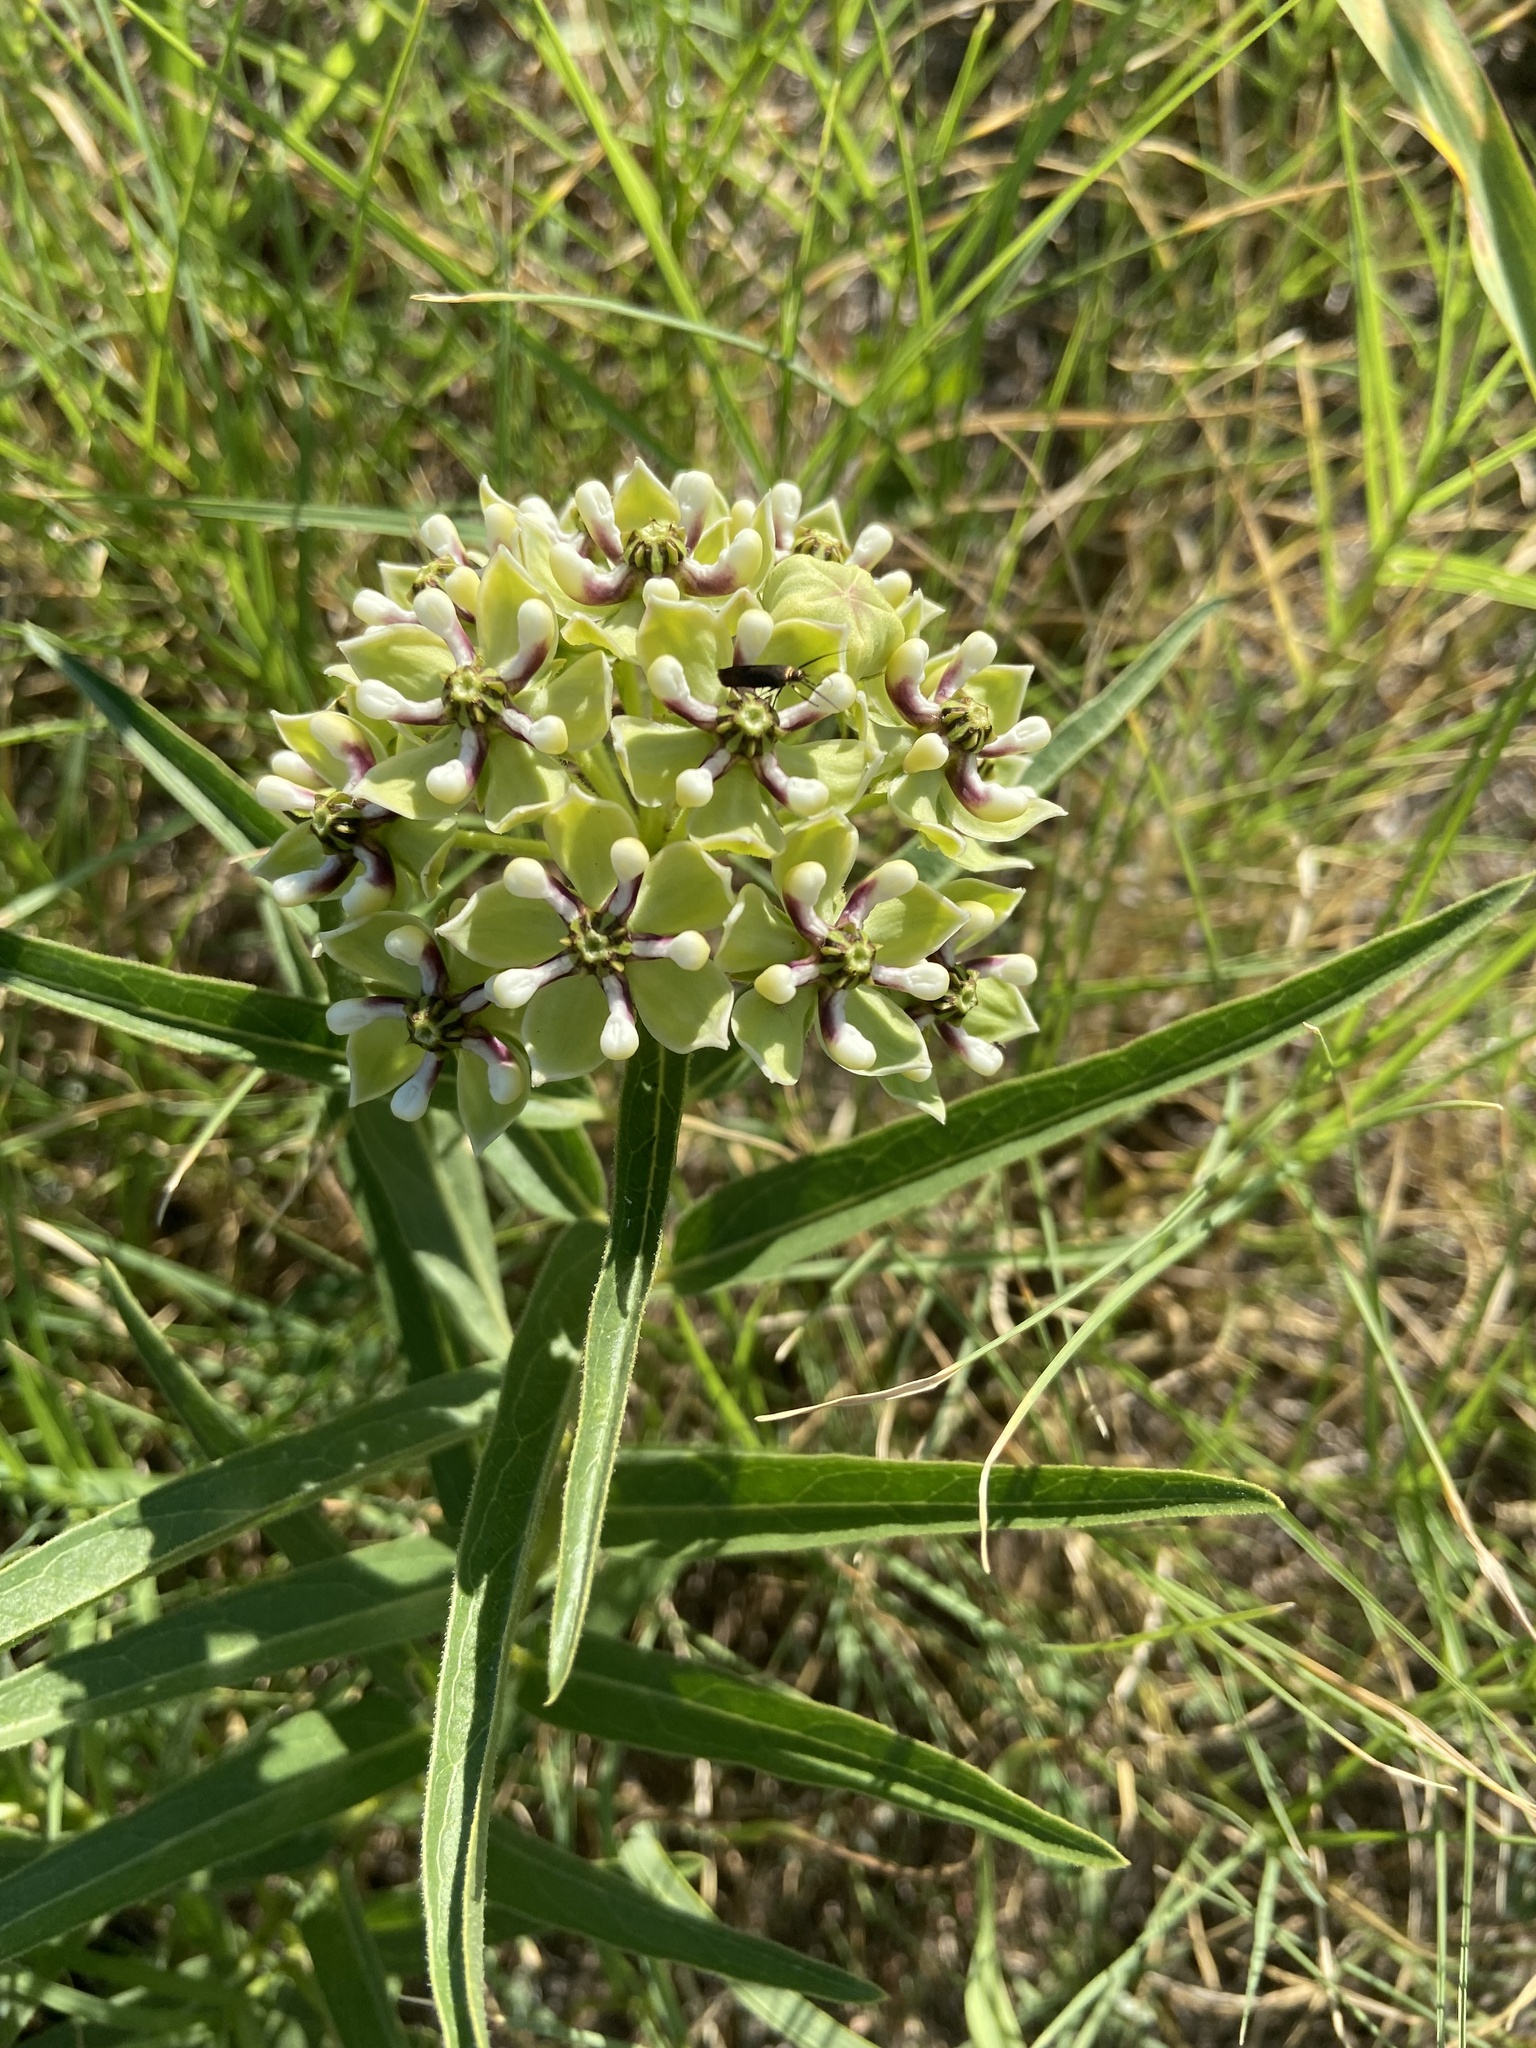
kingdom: Plantae
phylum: Tracheophyta
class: Magnoliopsida
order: Gentianales
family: Apocynaceae
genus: Asclepias
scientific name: Asclepias asperula
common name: Antelope horns
